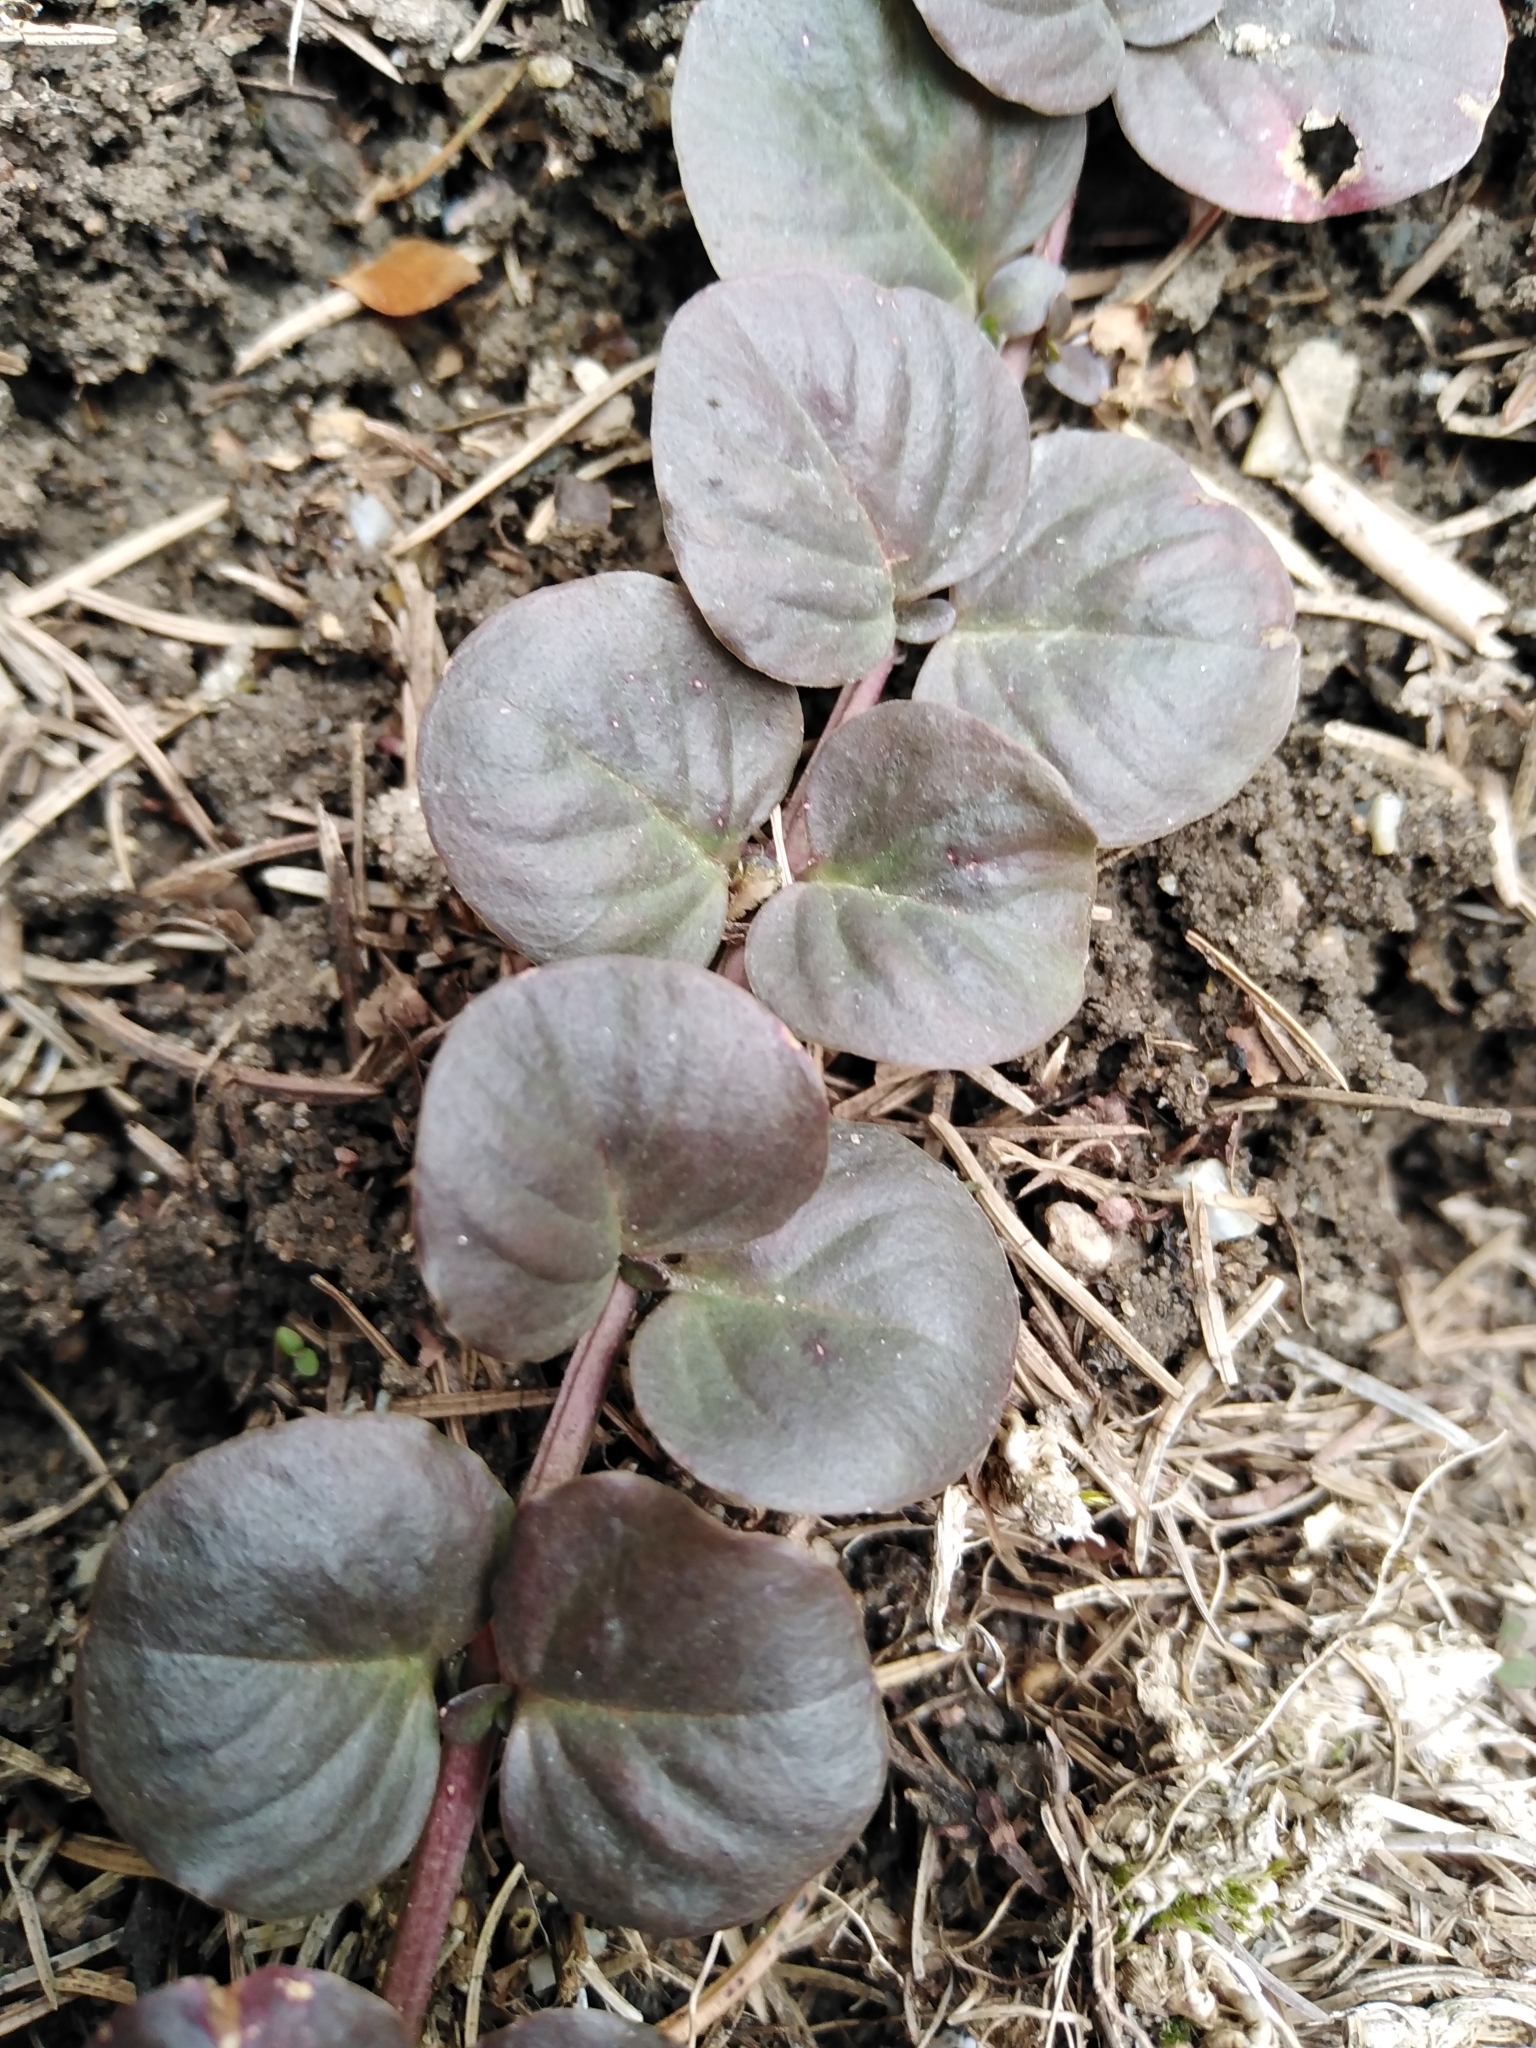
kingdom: Plantae
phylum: Tracheophyta
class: Magnoliopsida
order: Ericales
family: Primulaceae
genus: Lysimachia
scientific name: Lysimachia nummularia
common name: Moneywort
